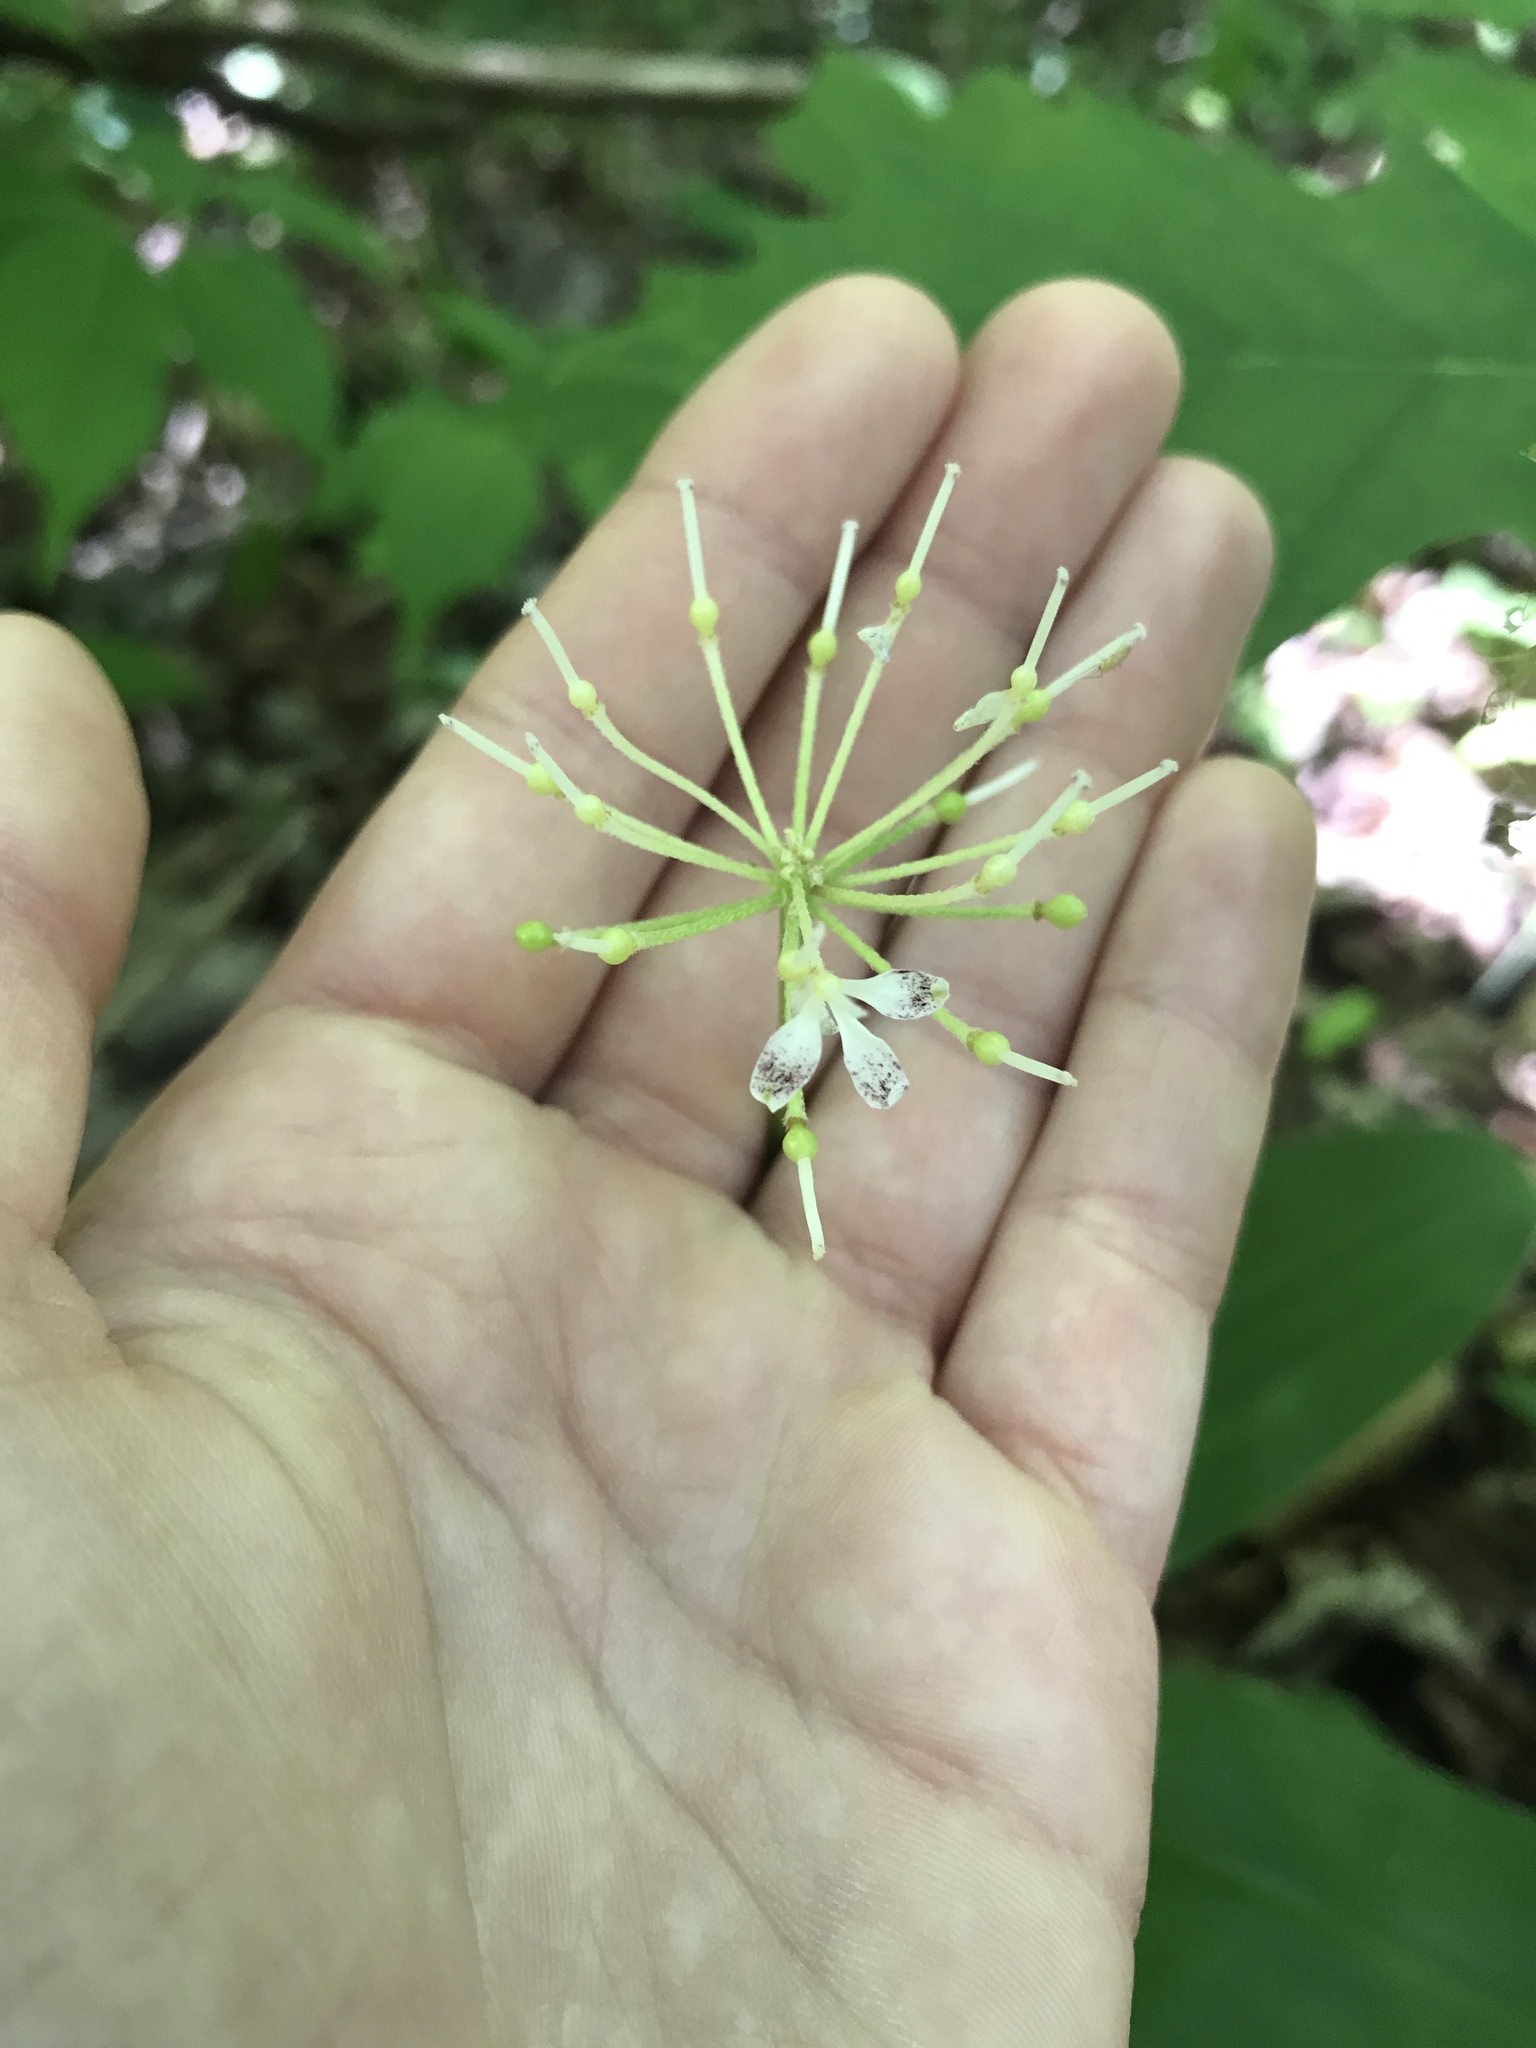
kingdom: Plantae
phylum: Tracheophyta
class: Liliopsida
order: Liliales
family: Liliaceae
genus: Clintonia
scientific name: Clintonia umbellulata
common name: Speckle wood-lily
